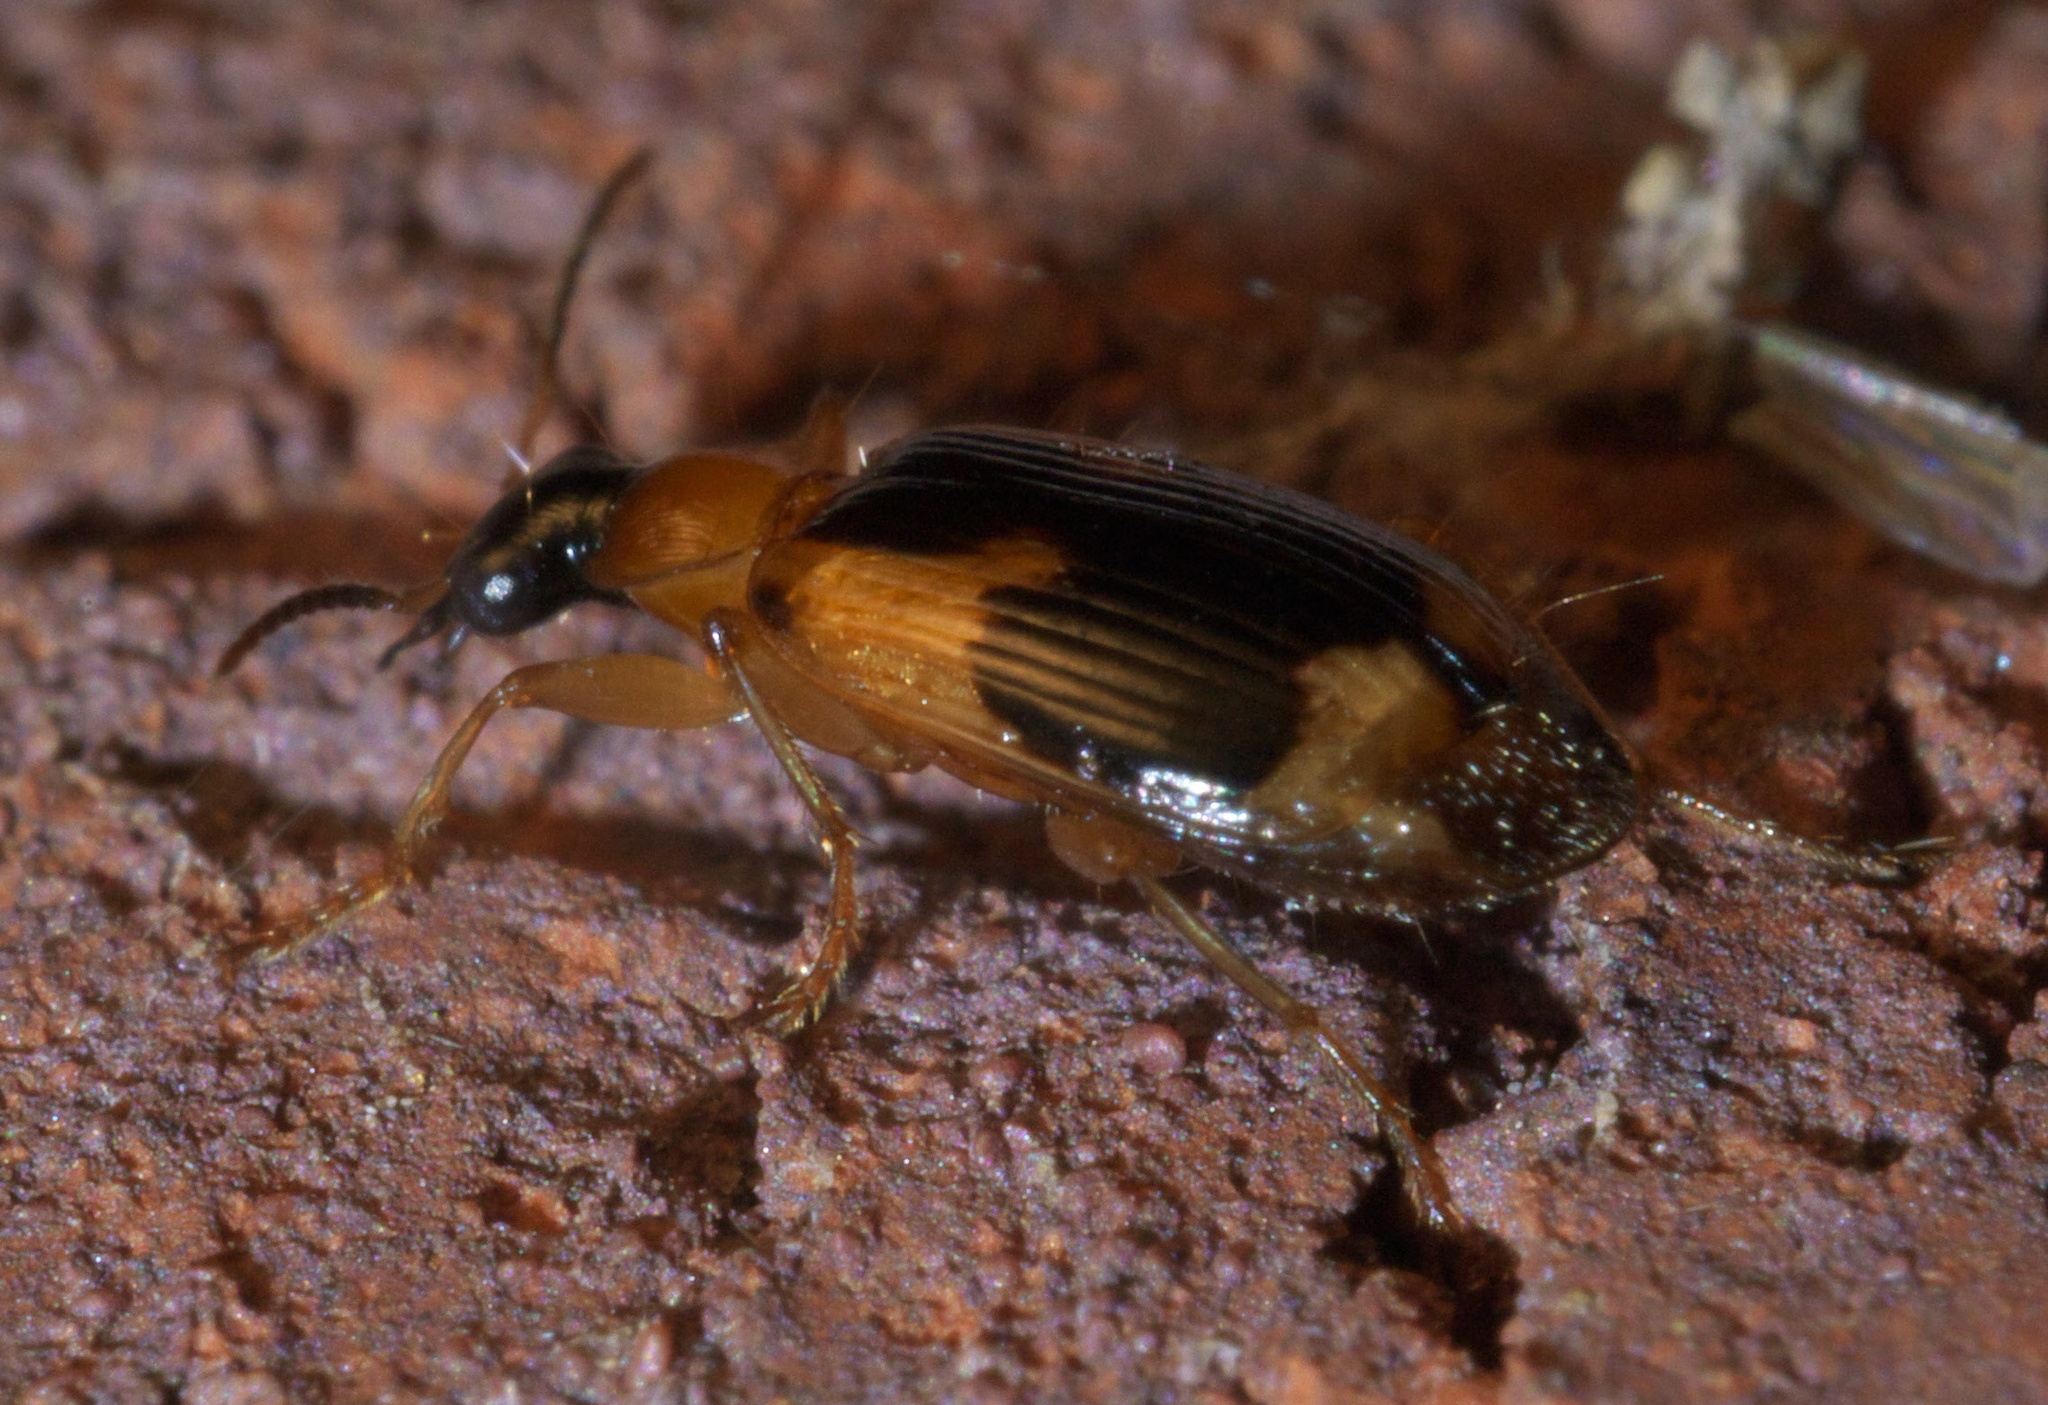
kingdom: Animalia
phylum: Arthropoda
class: Insecta
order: Coleoptera
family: Carabidae
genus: Lebia
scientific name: Lebia analis
